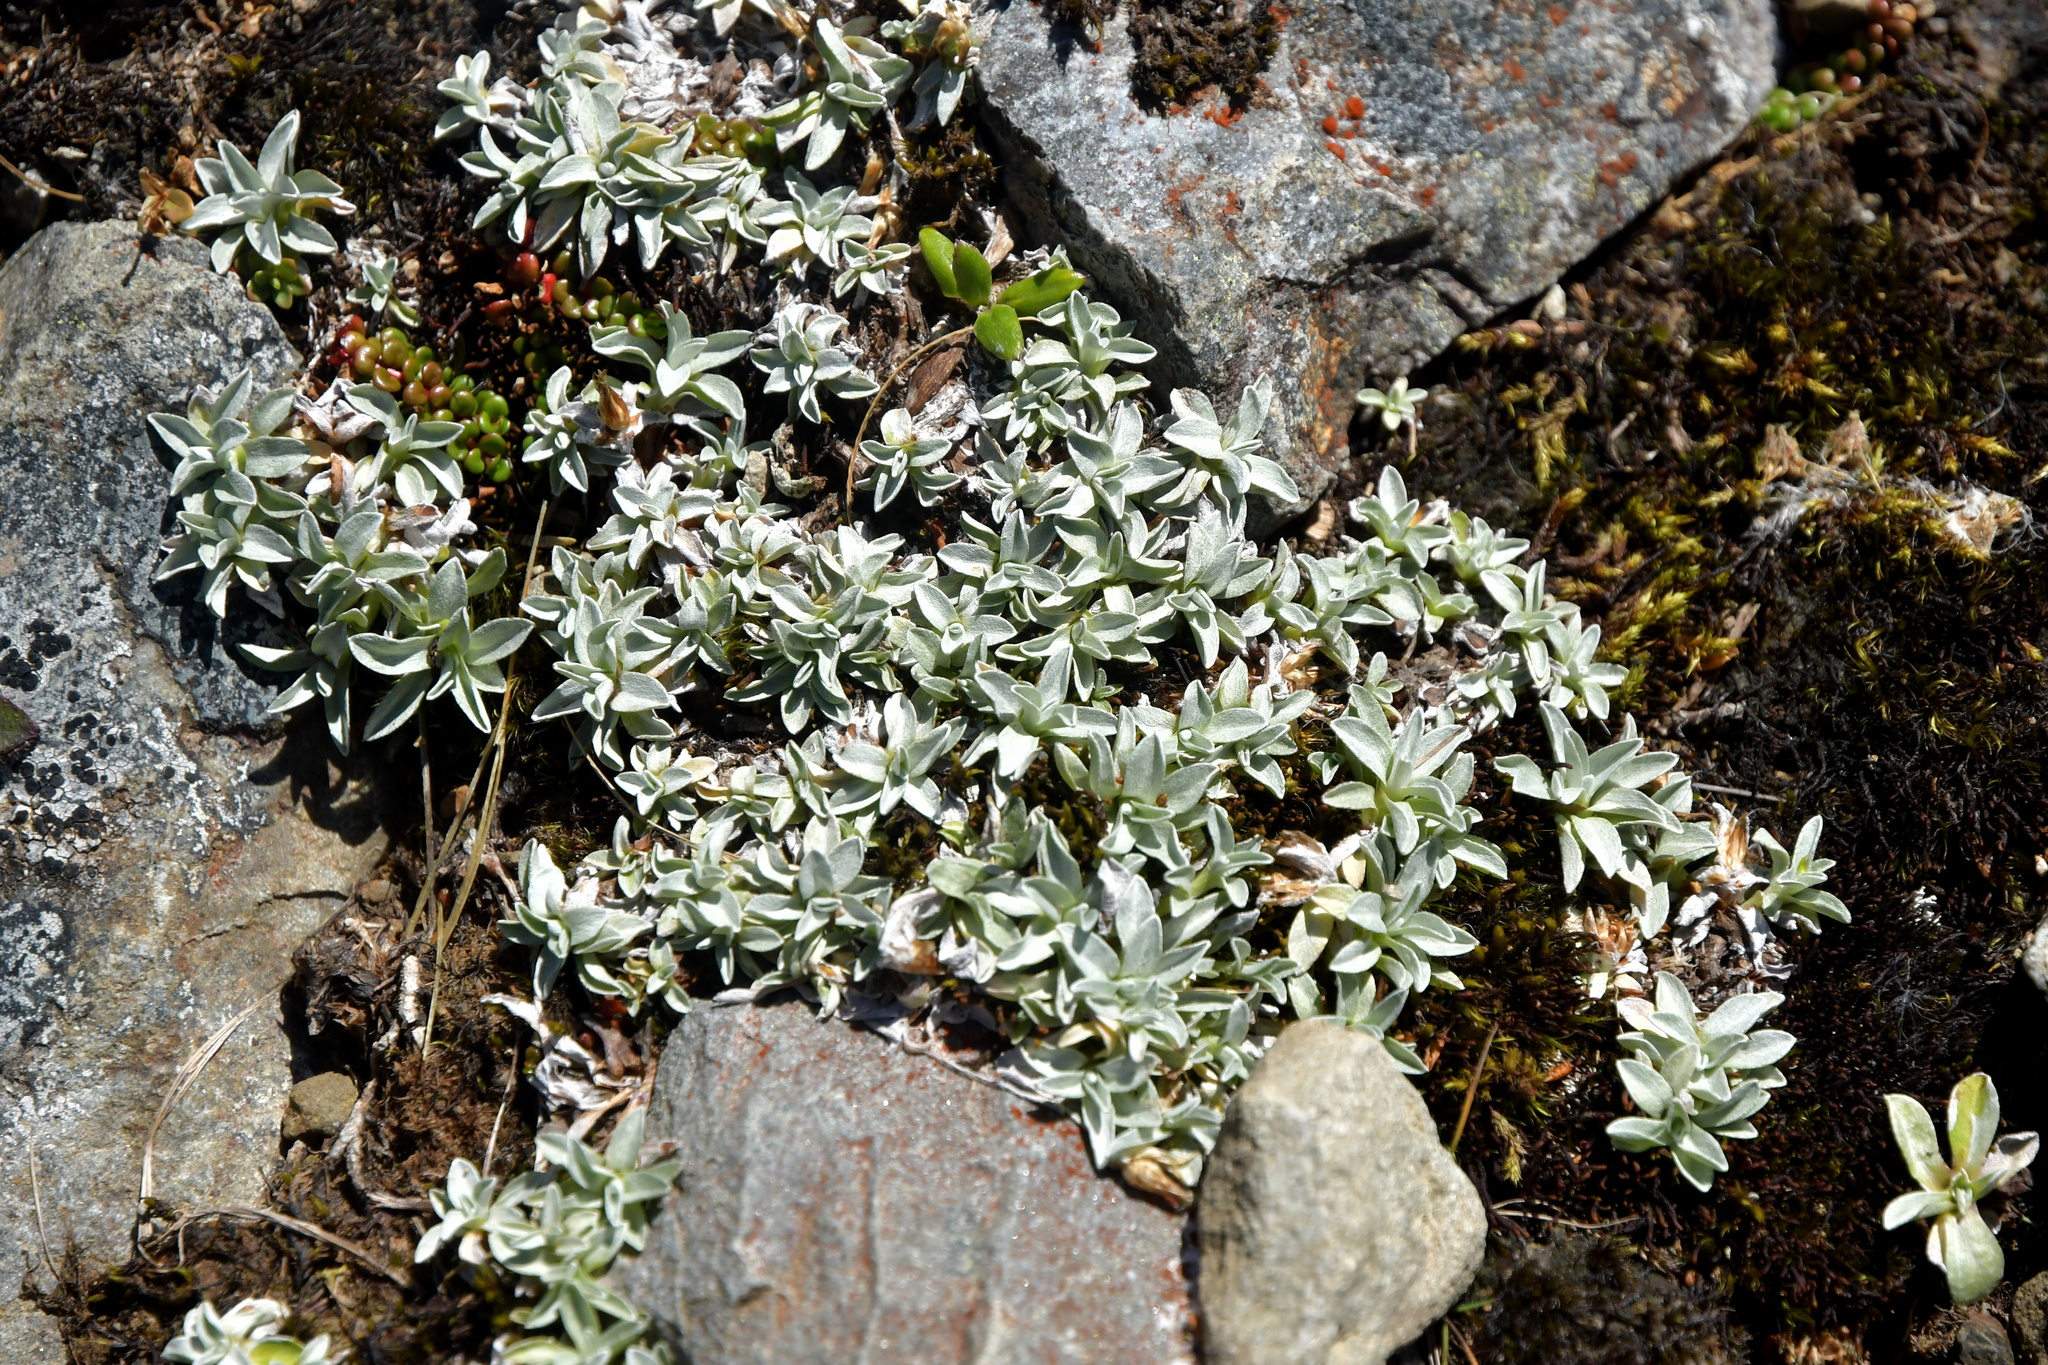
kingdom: Plantae
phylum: Tracheophyta
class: Magnoliopsida
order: Asterales
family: Asteraceae
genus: Argyrotegium
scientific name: Argyrotegium mackayi
